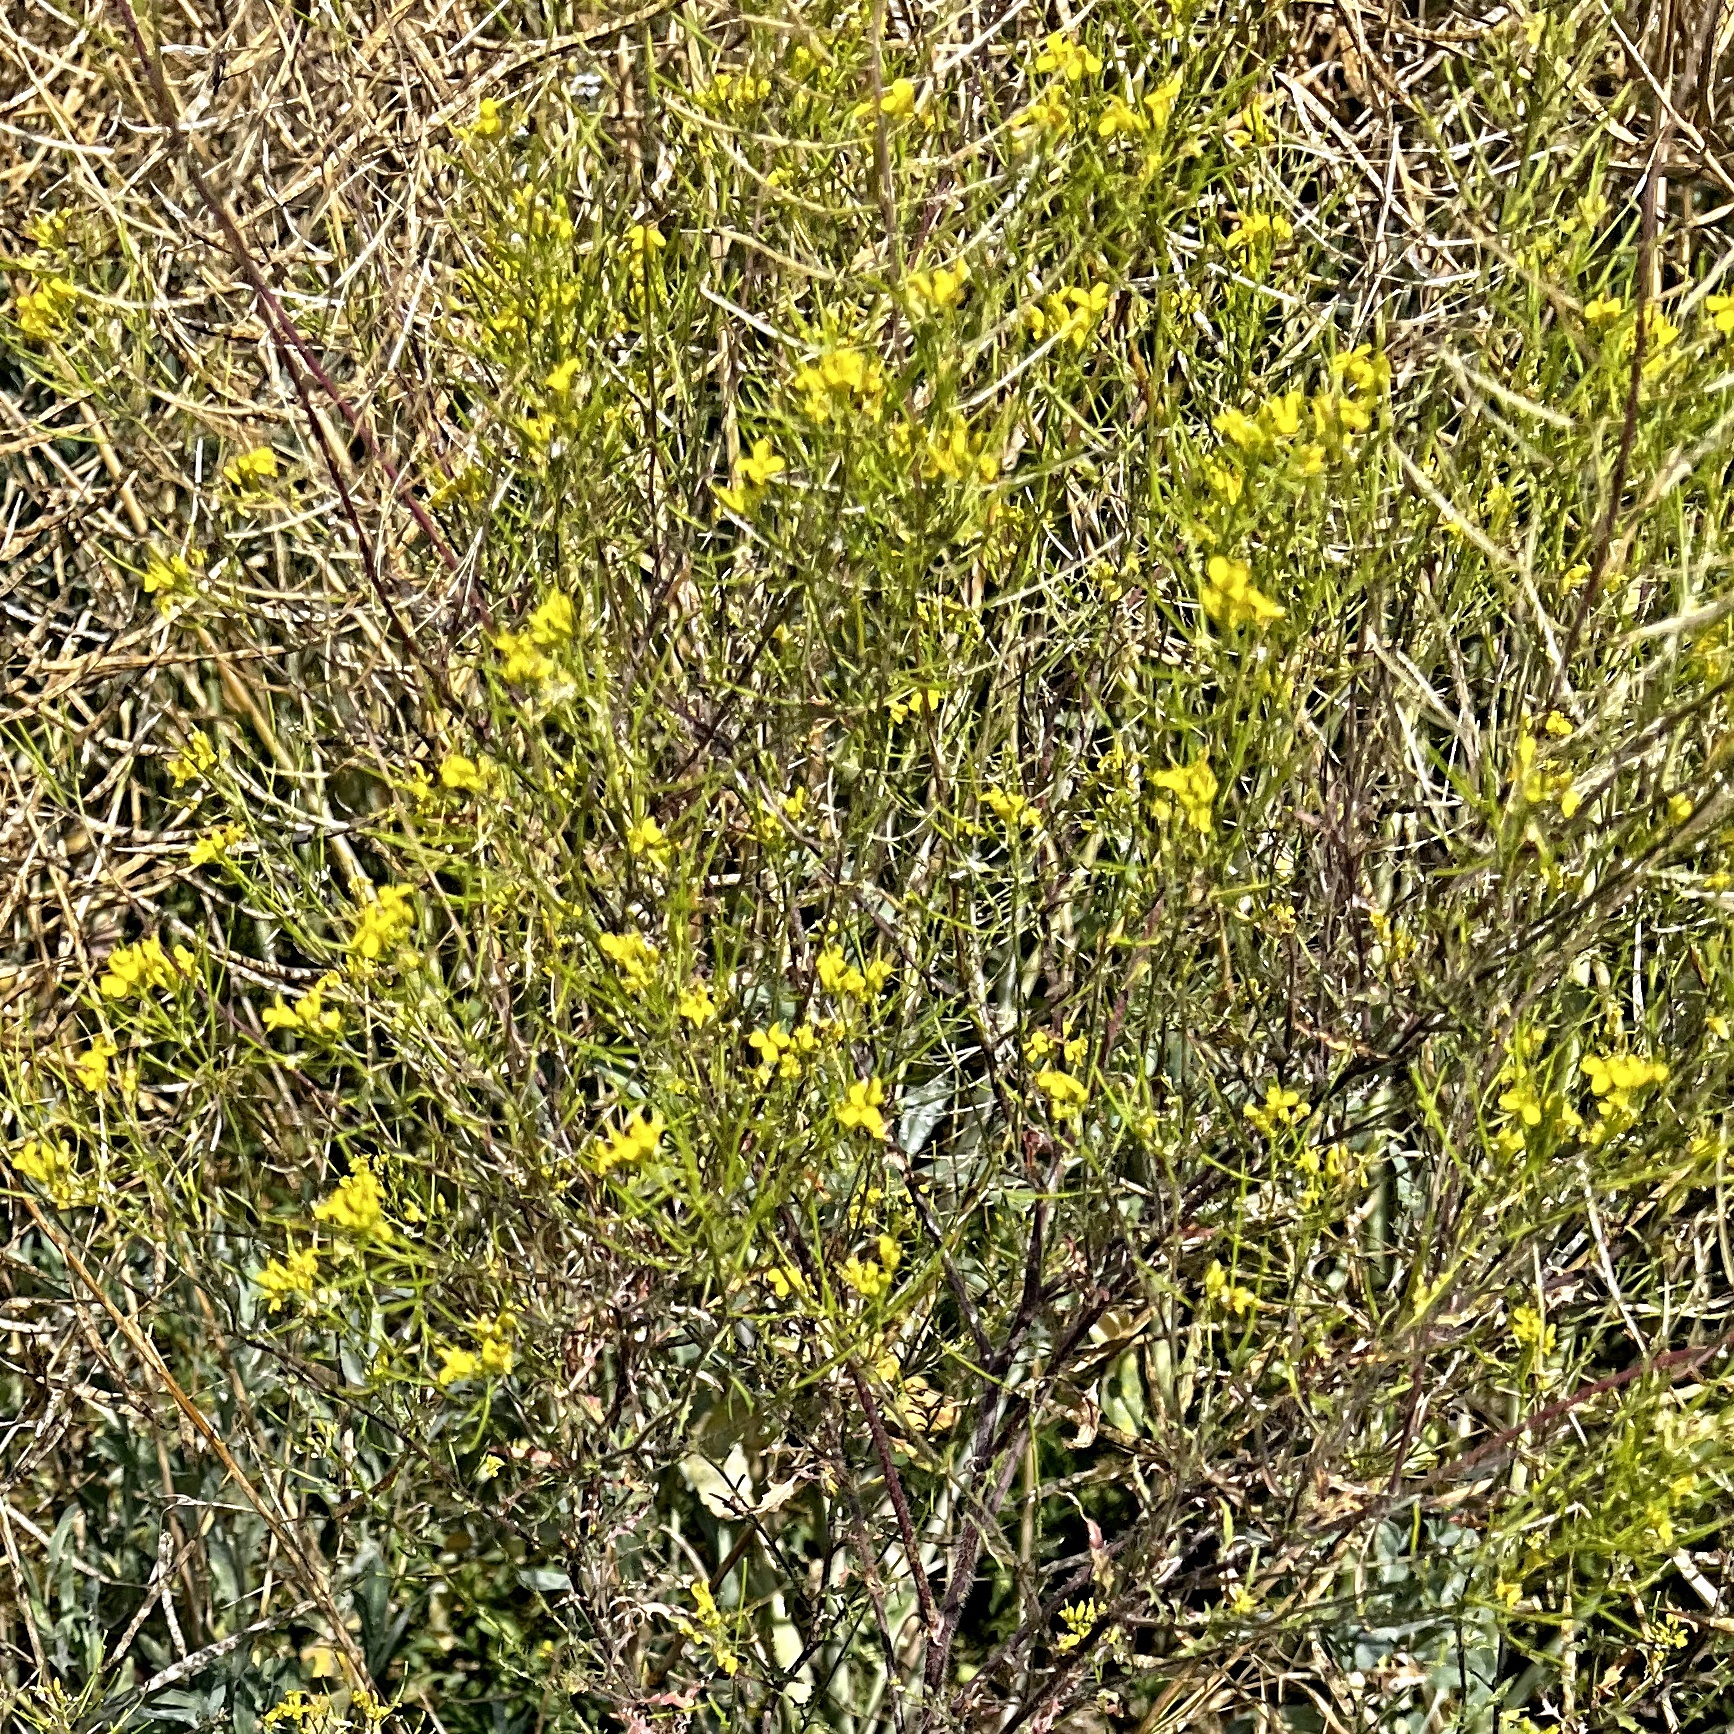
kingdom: Plantae
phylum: Tracheophyta
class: Magnoliopsida
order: Brassicales
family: Brassicaceae
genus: Sisymbrium
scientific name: Sisymbrium loeselii
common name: False london-rocket
